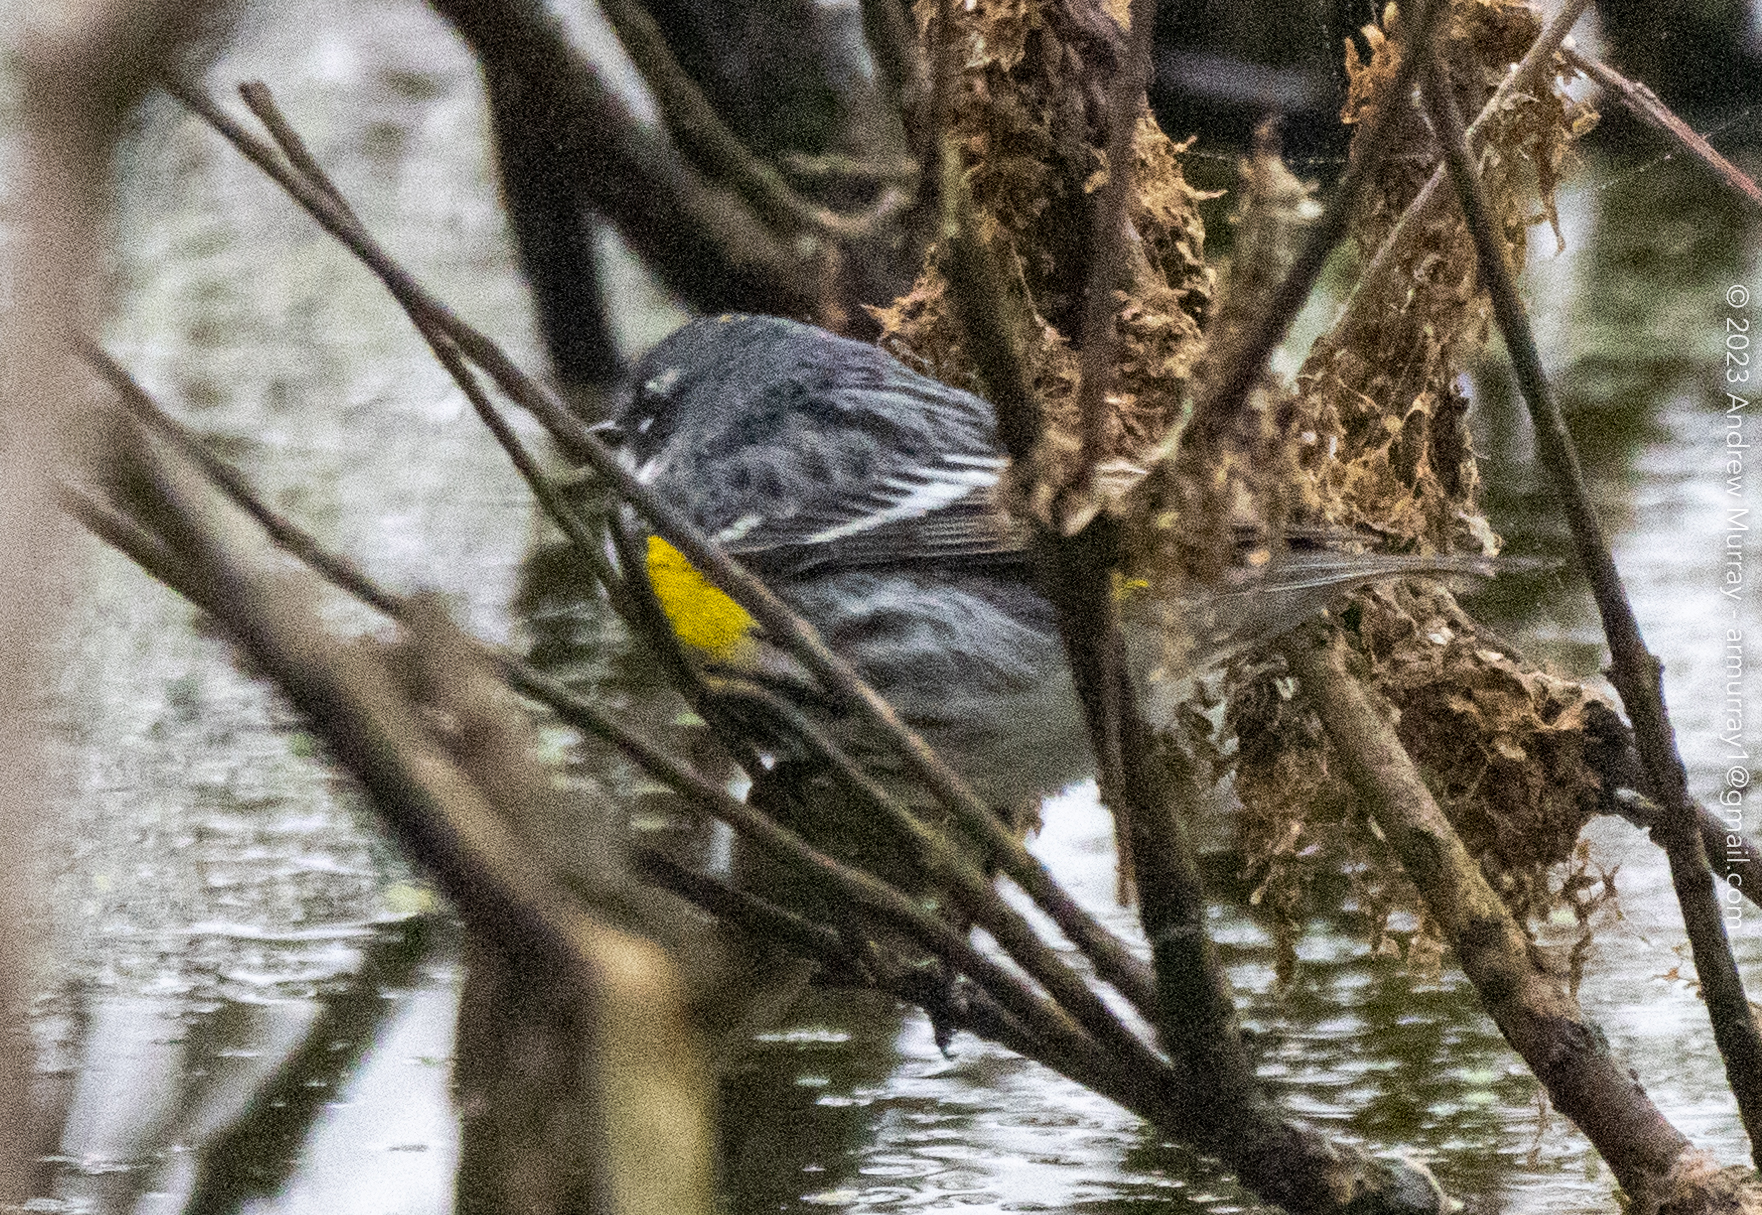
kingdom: Animalia
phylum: Chordata
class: Aves
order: Passeriformes
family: Parulidae
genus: Setophaga
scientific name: Setophaga coronata
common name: Myrtle warbler
